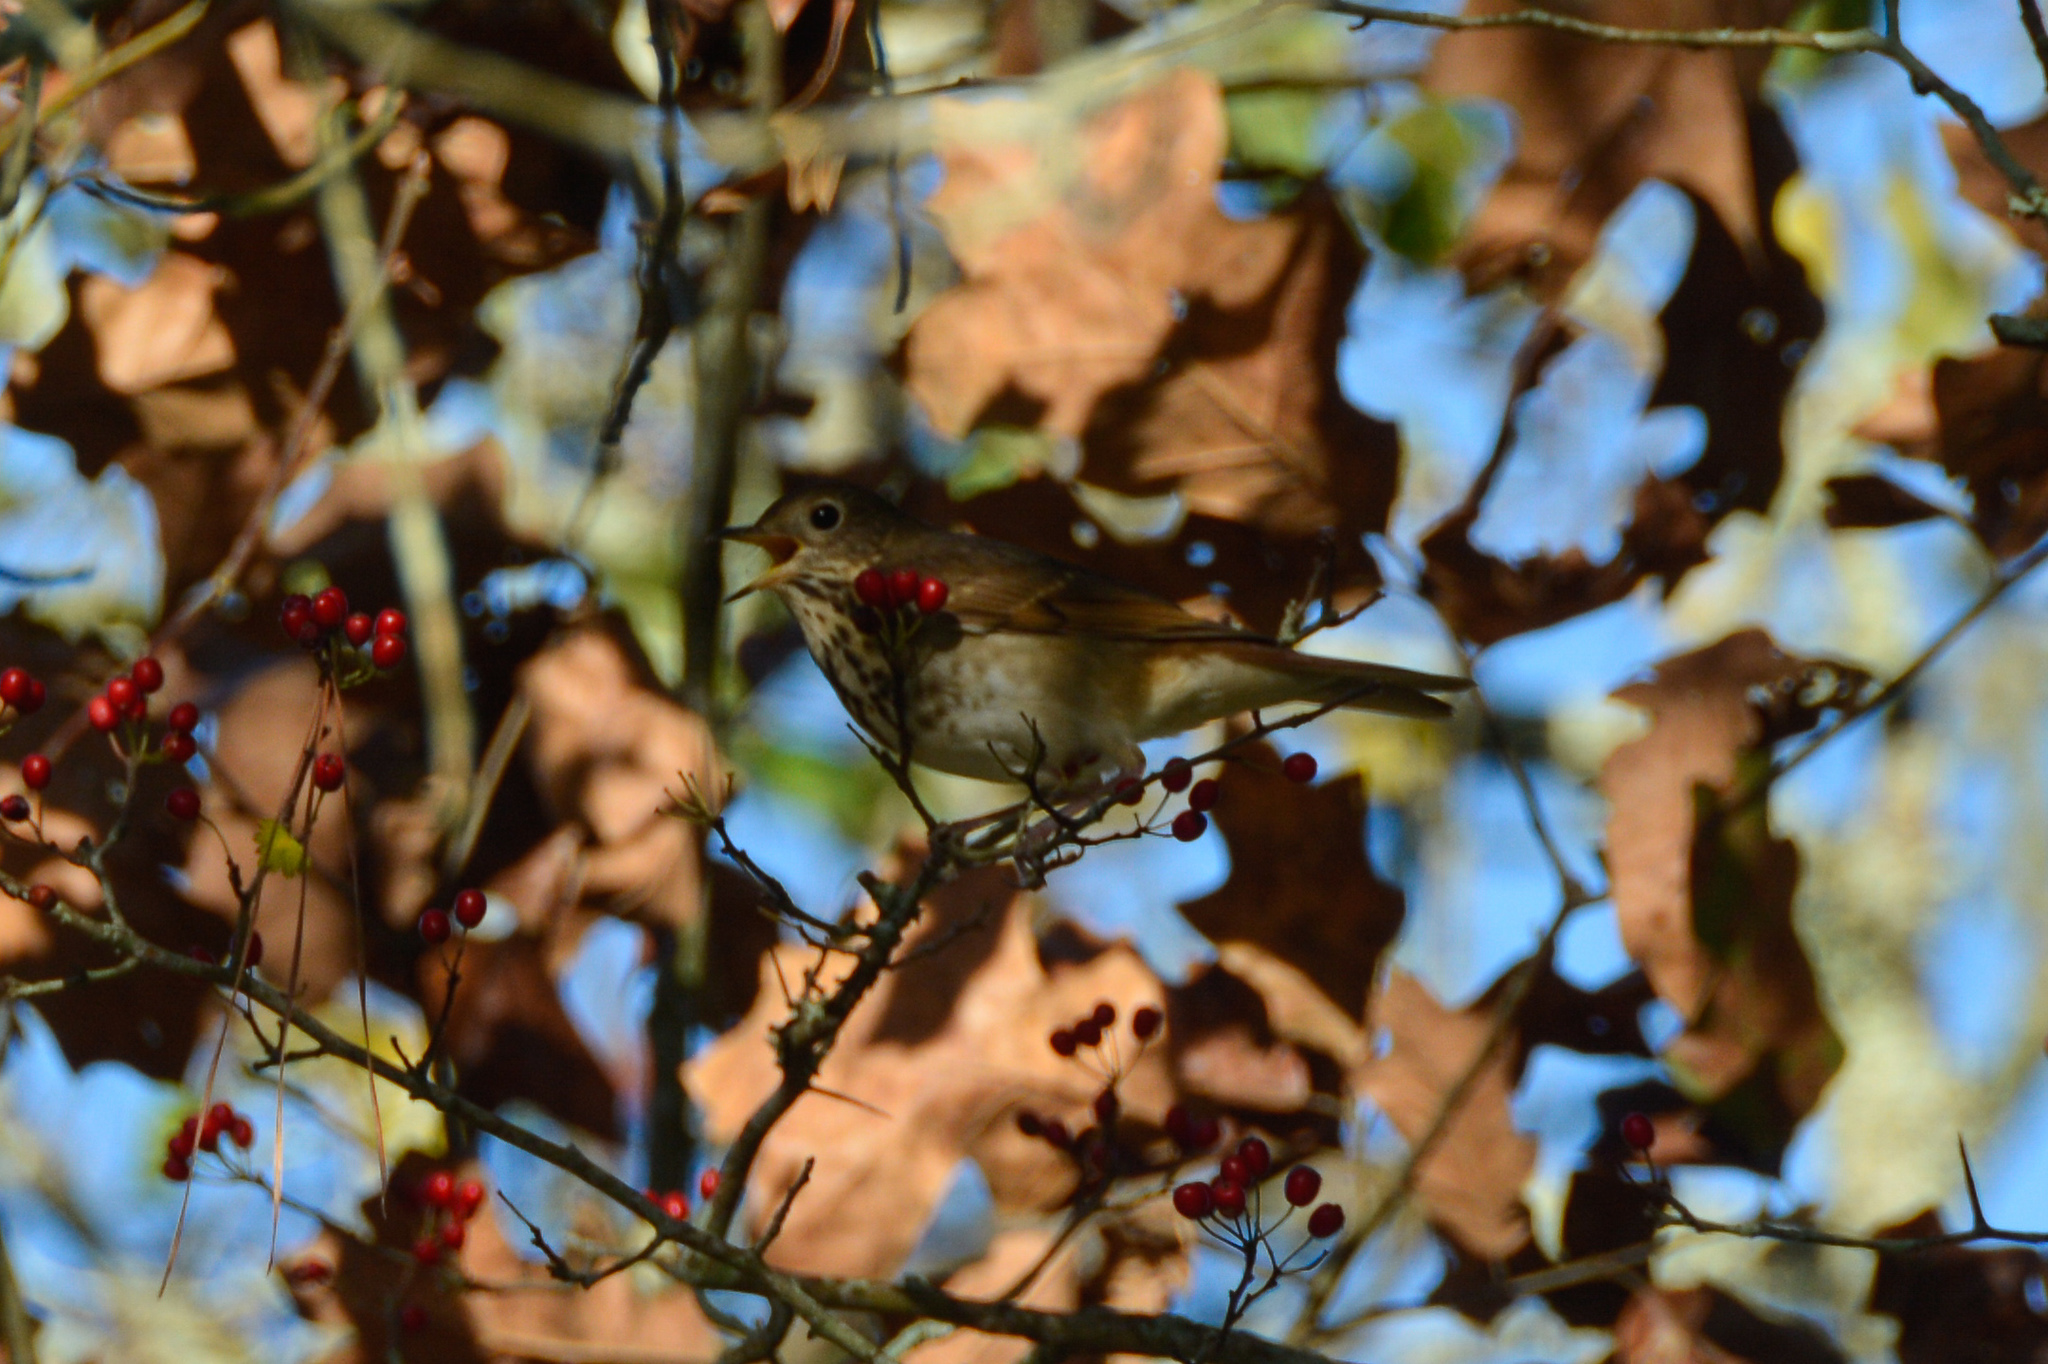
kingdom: Animalia
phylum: Chordata
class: Aves
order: Passeriformes
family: Turdidae
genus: Catharus
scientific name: Catharus guttatus
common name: Hermit thrush
